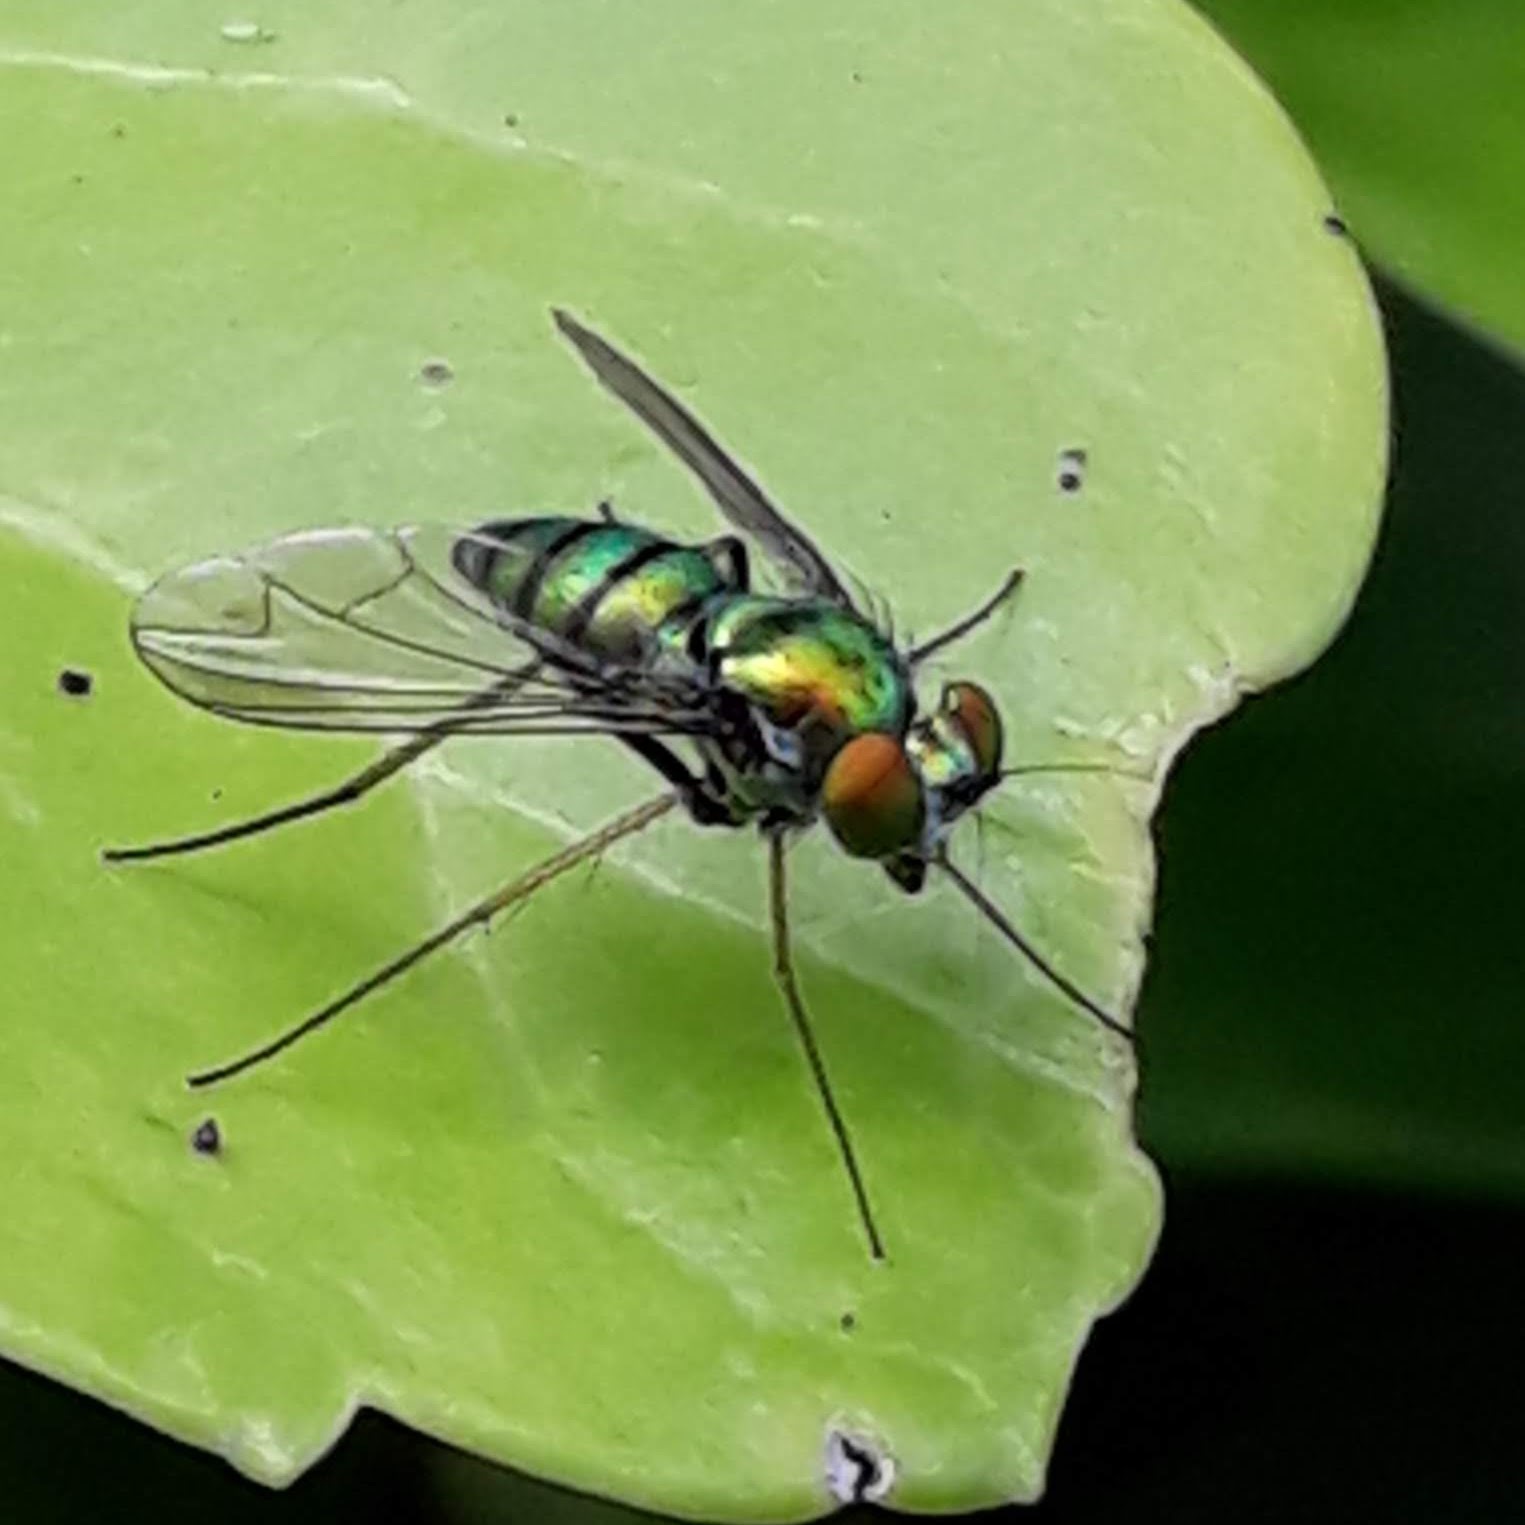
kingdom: Animalia
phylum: Arthropoda
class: Insecta
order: Diptera
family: Dolichopodidae
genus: Condylostylus
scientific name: Condylostylus
